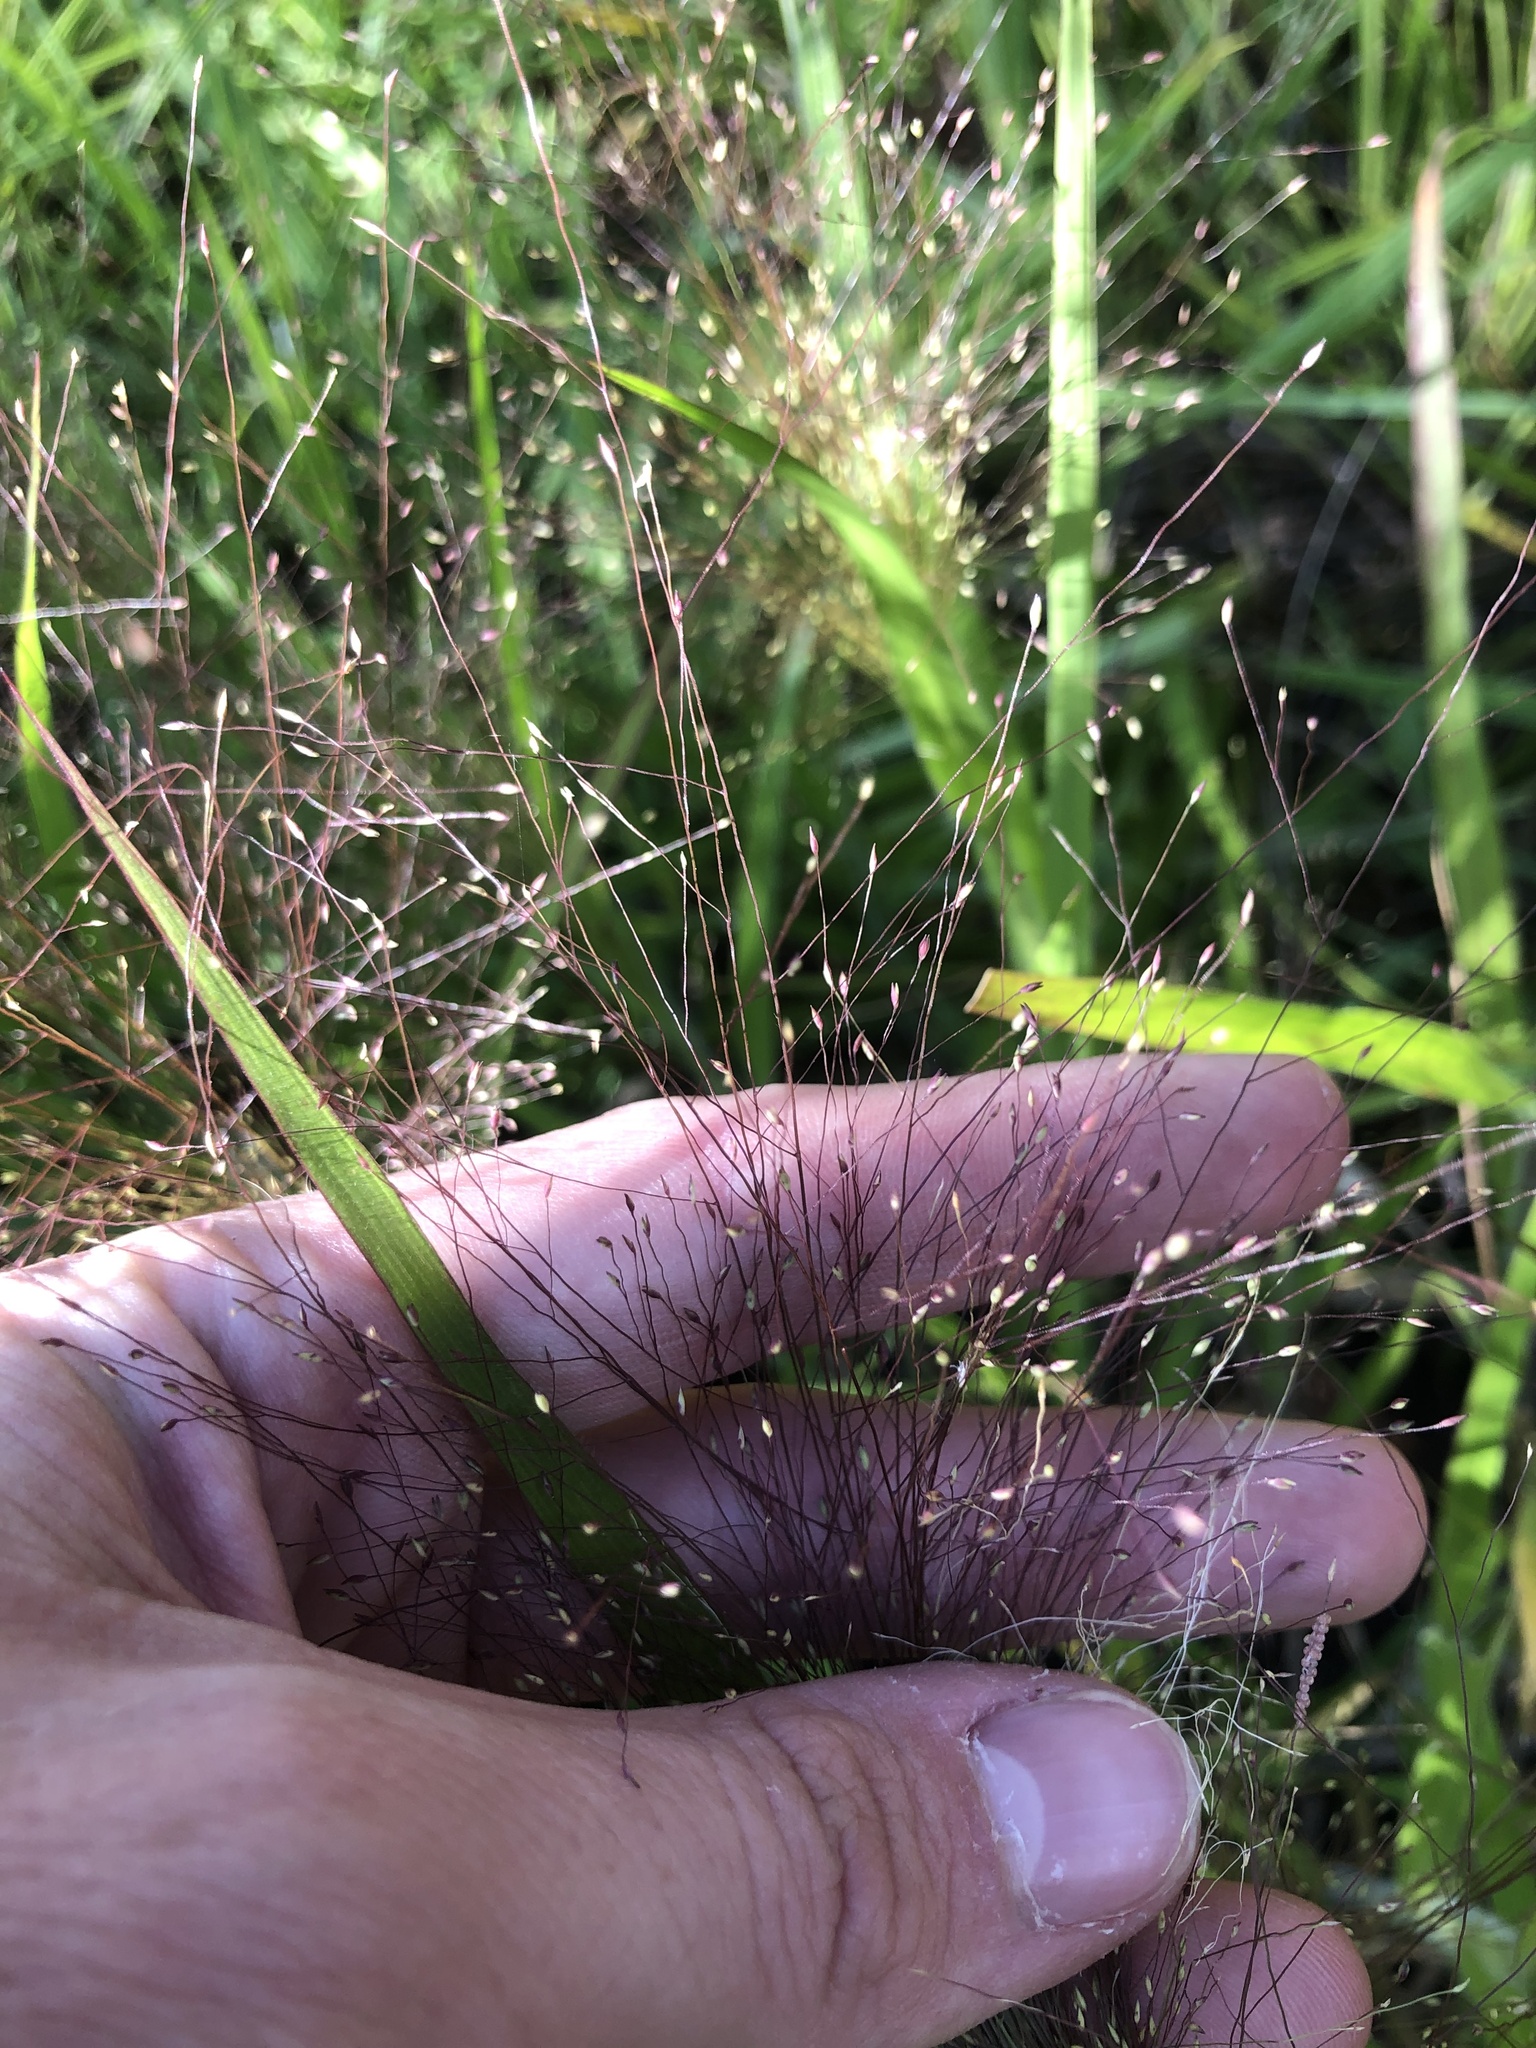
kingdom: Plantae
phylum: Tracheophyta
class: Liliopsida
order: Poales
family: Poaceae
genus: Panicum
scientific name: Panicum gattingeri
